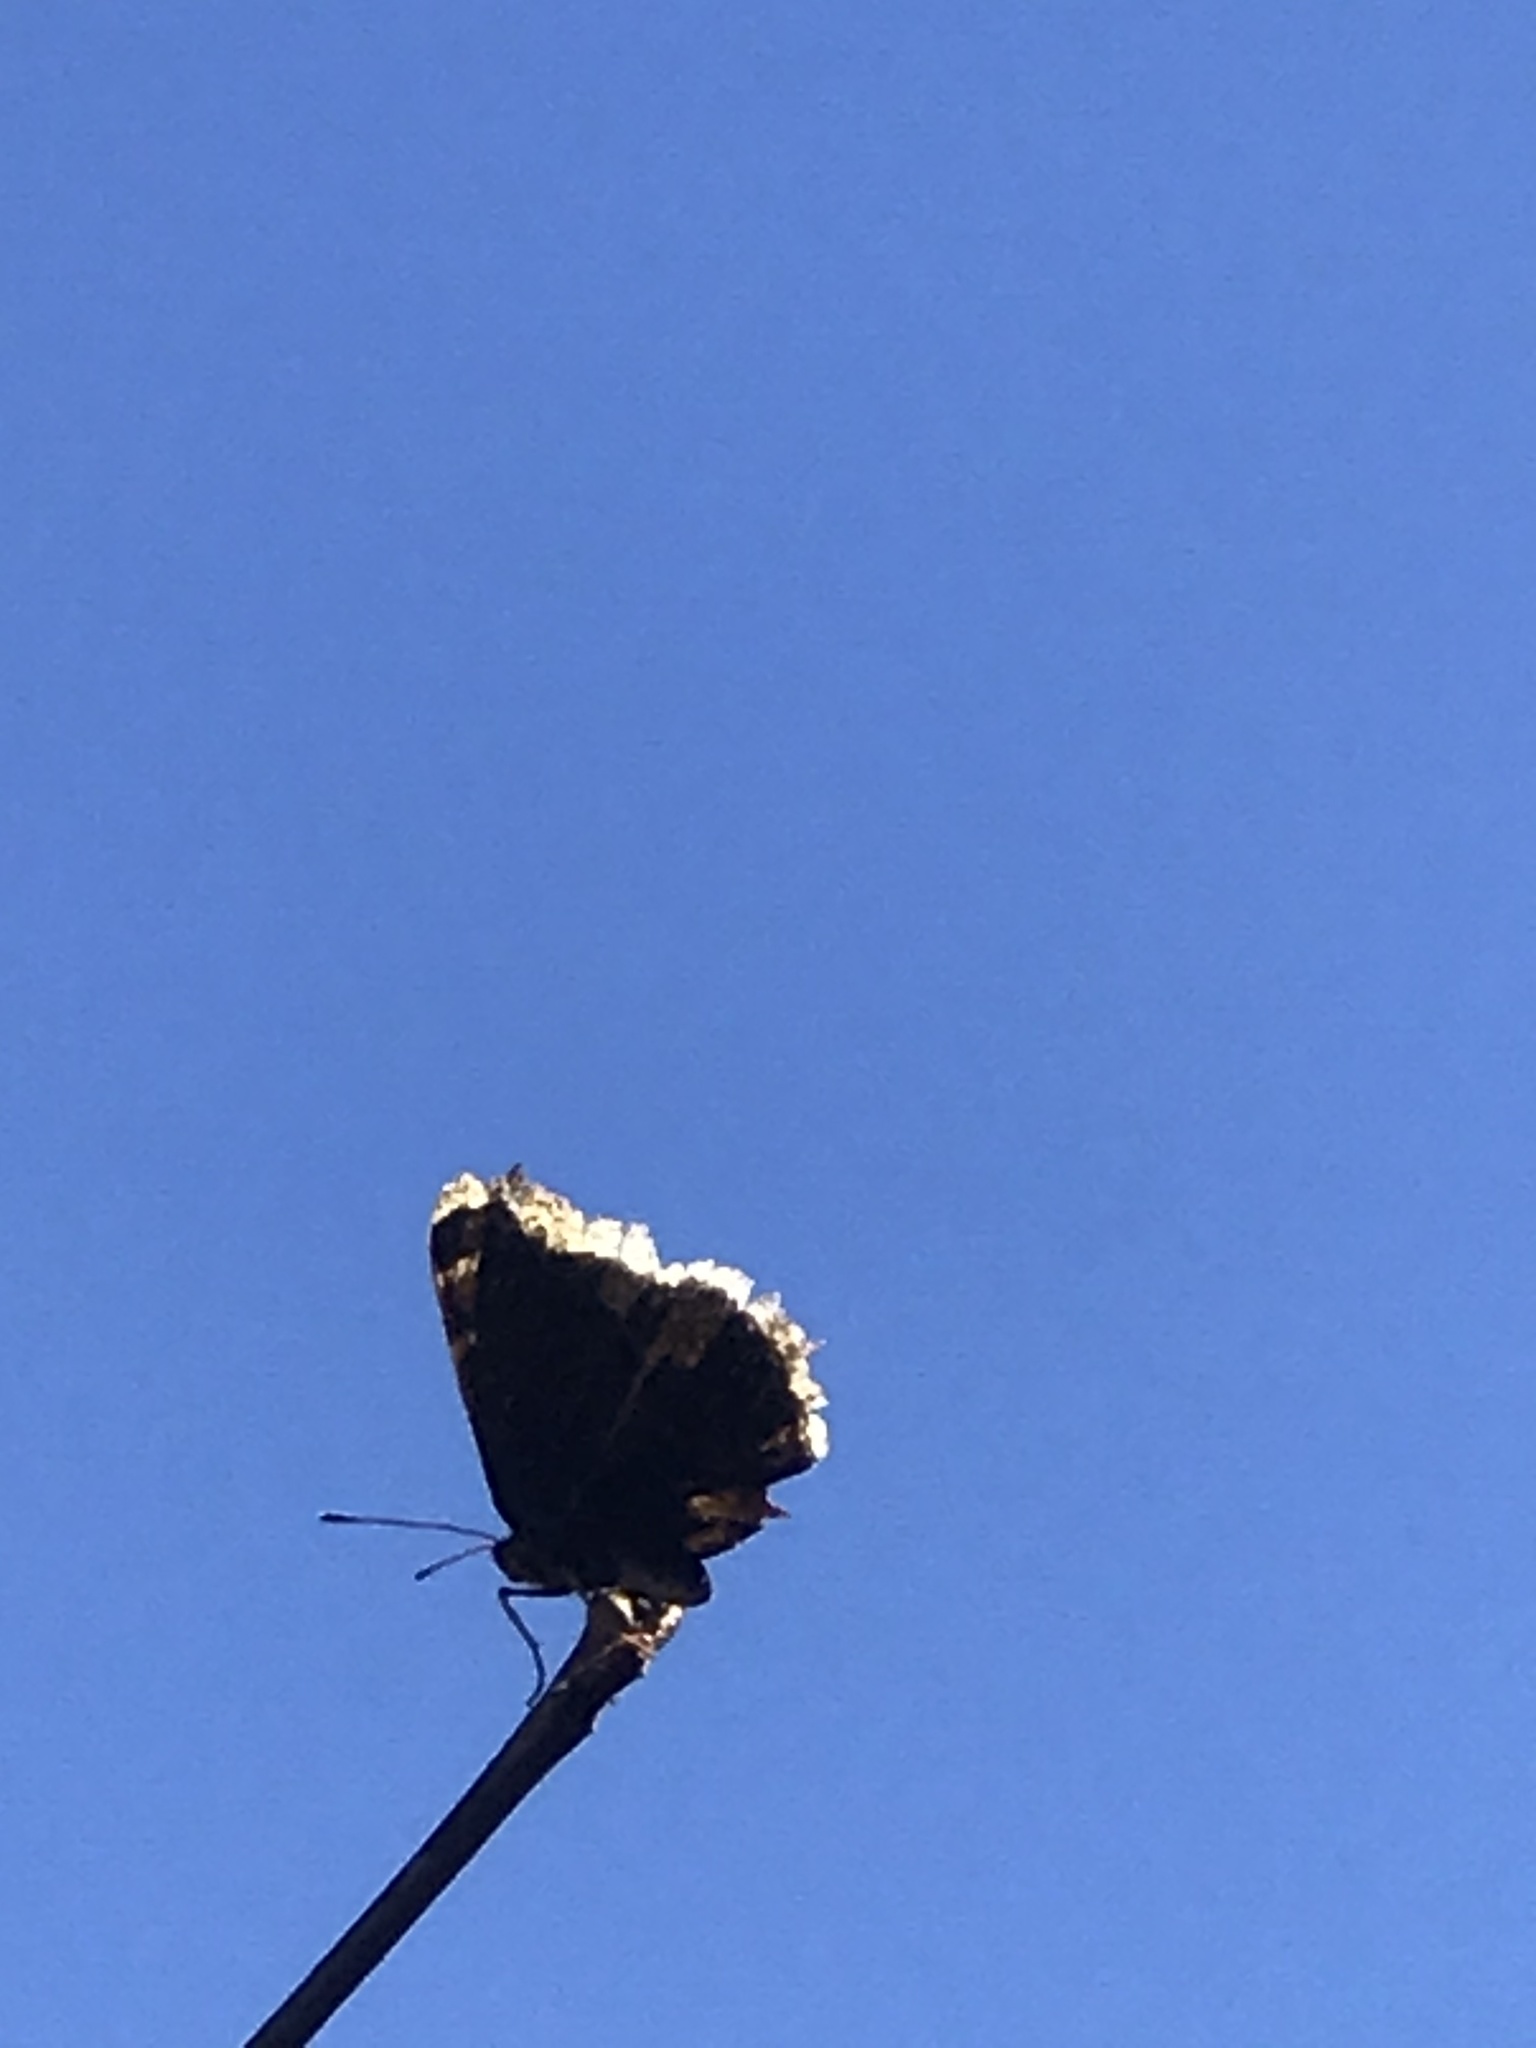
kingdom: Animalia
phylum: Arthropoda
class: Insecta
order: Lepidoptera
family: Nymphalidae
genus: Nymphalis
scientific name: Nymphalis antiopa
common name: Camberwell beauty
